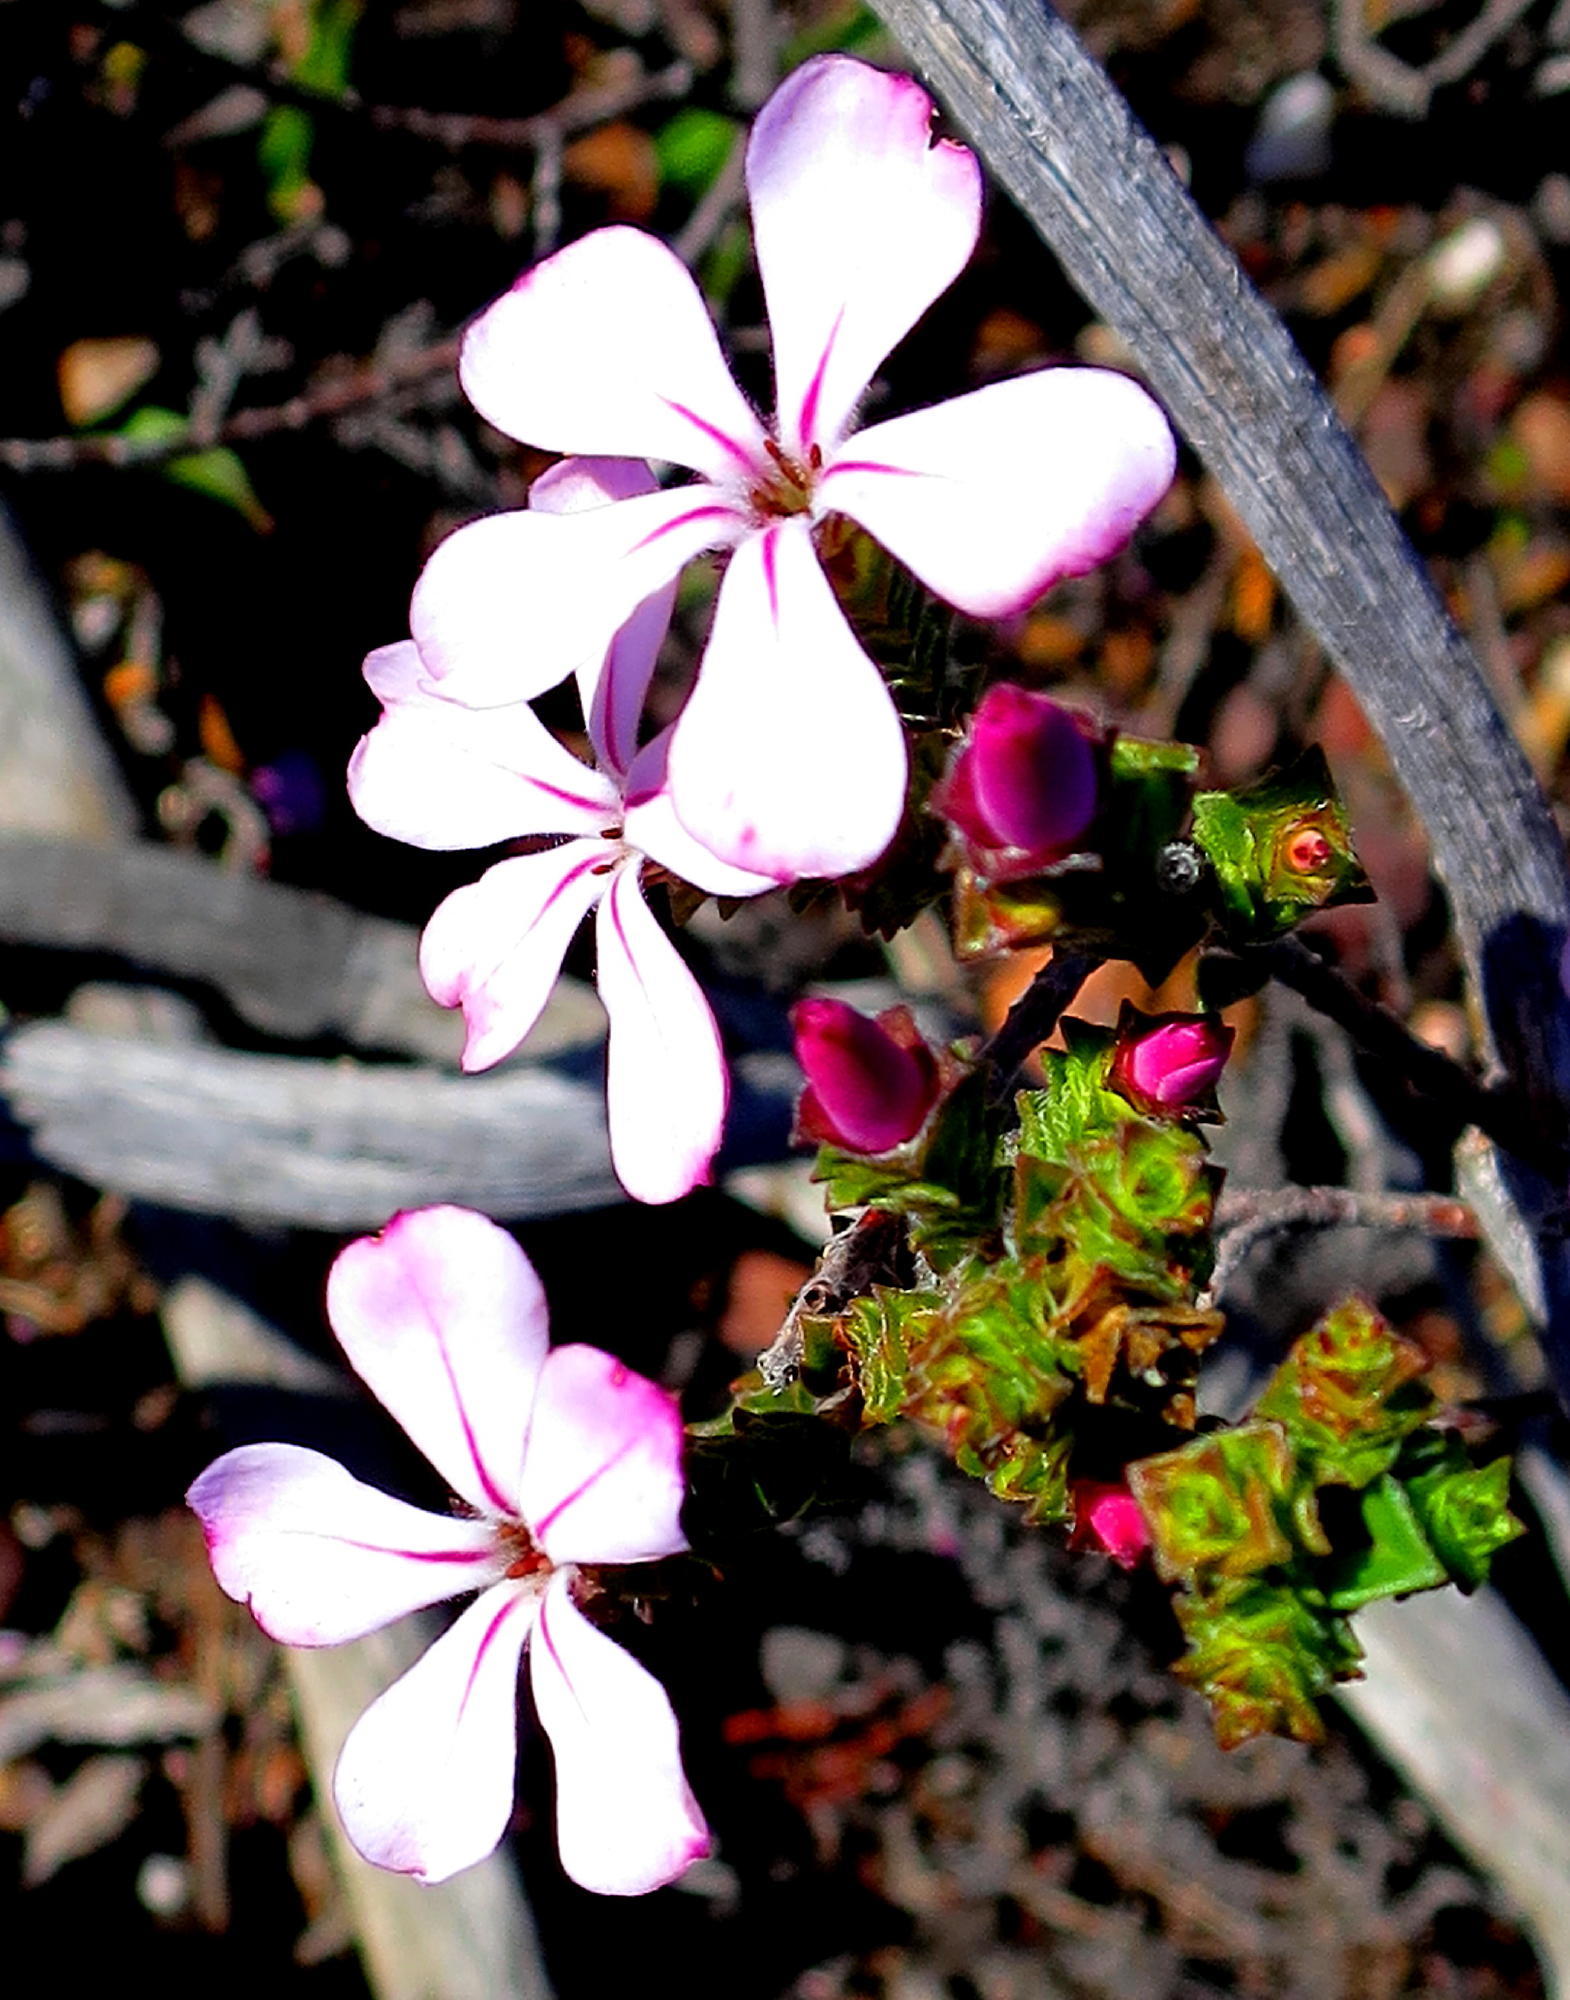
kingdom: Plantae
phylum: Tracheophyta
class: Magnoliopsida
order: Sapindales
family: Rutaceae
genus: Acmadenia
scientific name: Acmadenia tetragona
